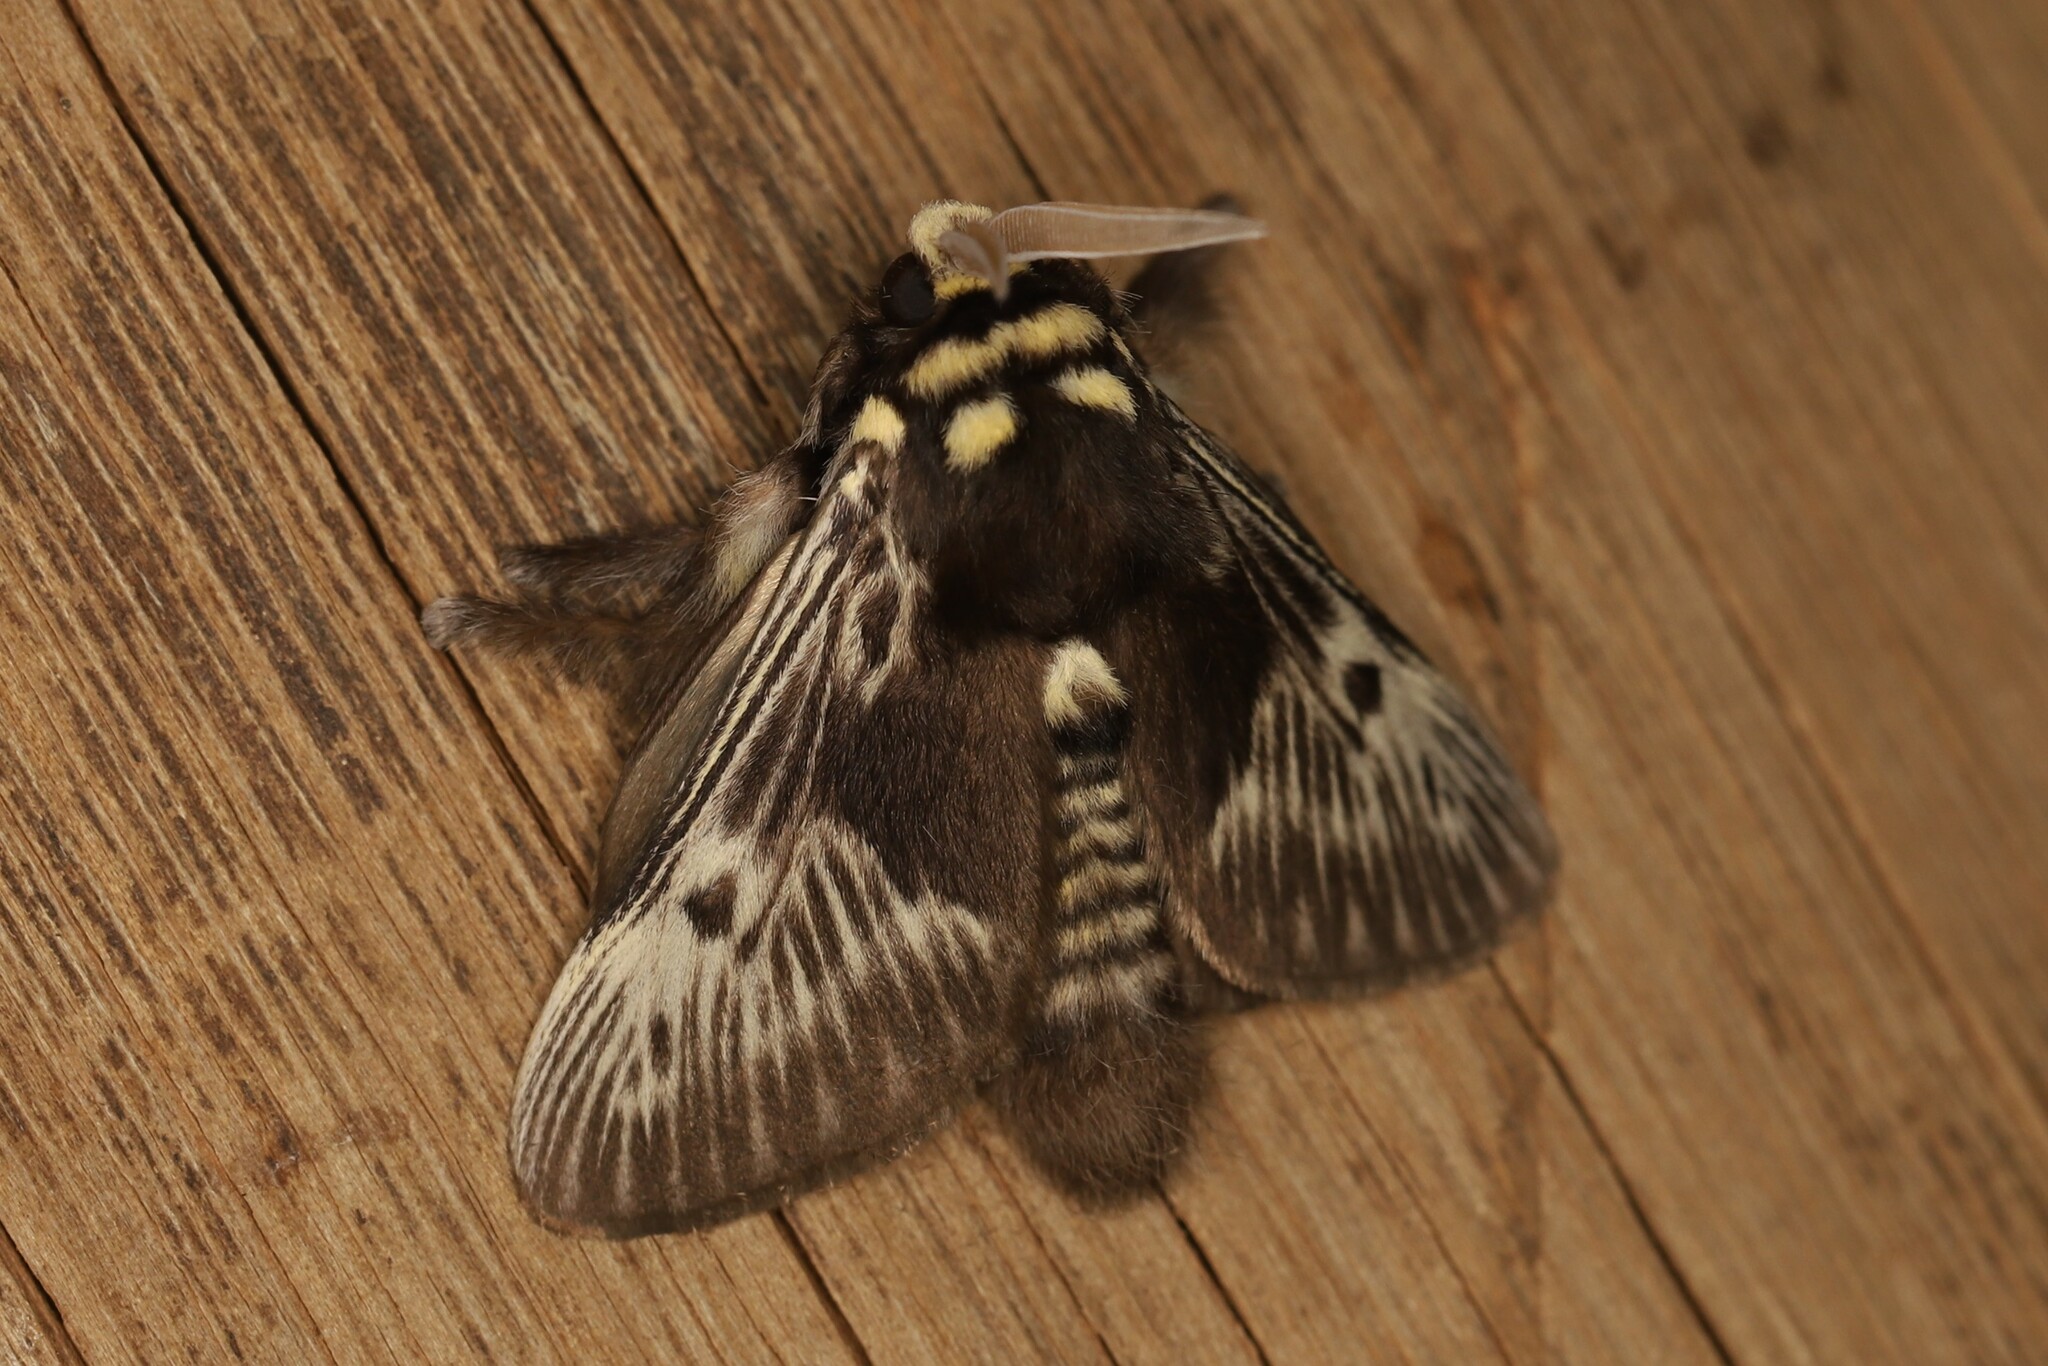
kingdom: Animalia
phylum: Arthropoda
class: Insecta
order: Lepidoptera
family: Megalopygidae
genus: Megalopyge
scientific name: Megalopyge albicollis
